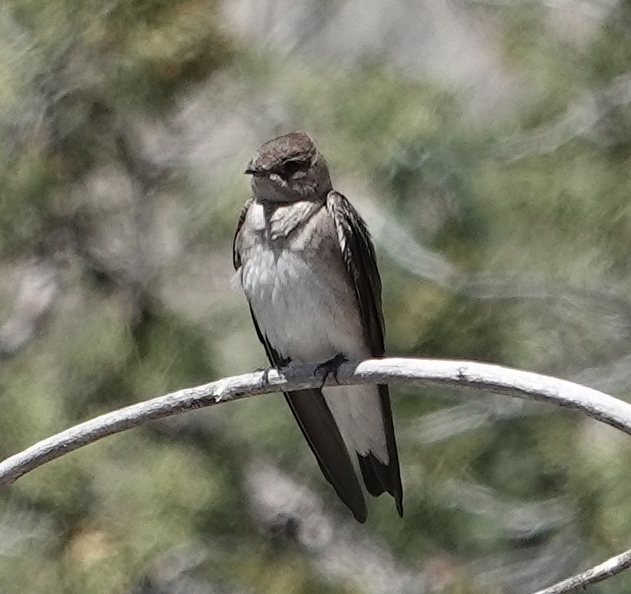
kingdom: Animalia
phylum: Chordata
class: Aves
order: Passeriformes
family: Hirundinidae
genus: Stelgidopteryx
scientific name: Stelgidopteryx serripennis
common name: Northern rough-winged swallow
